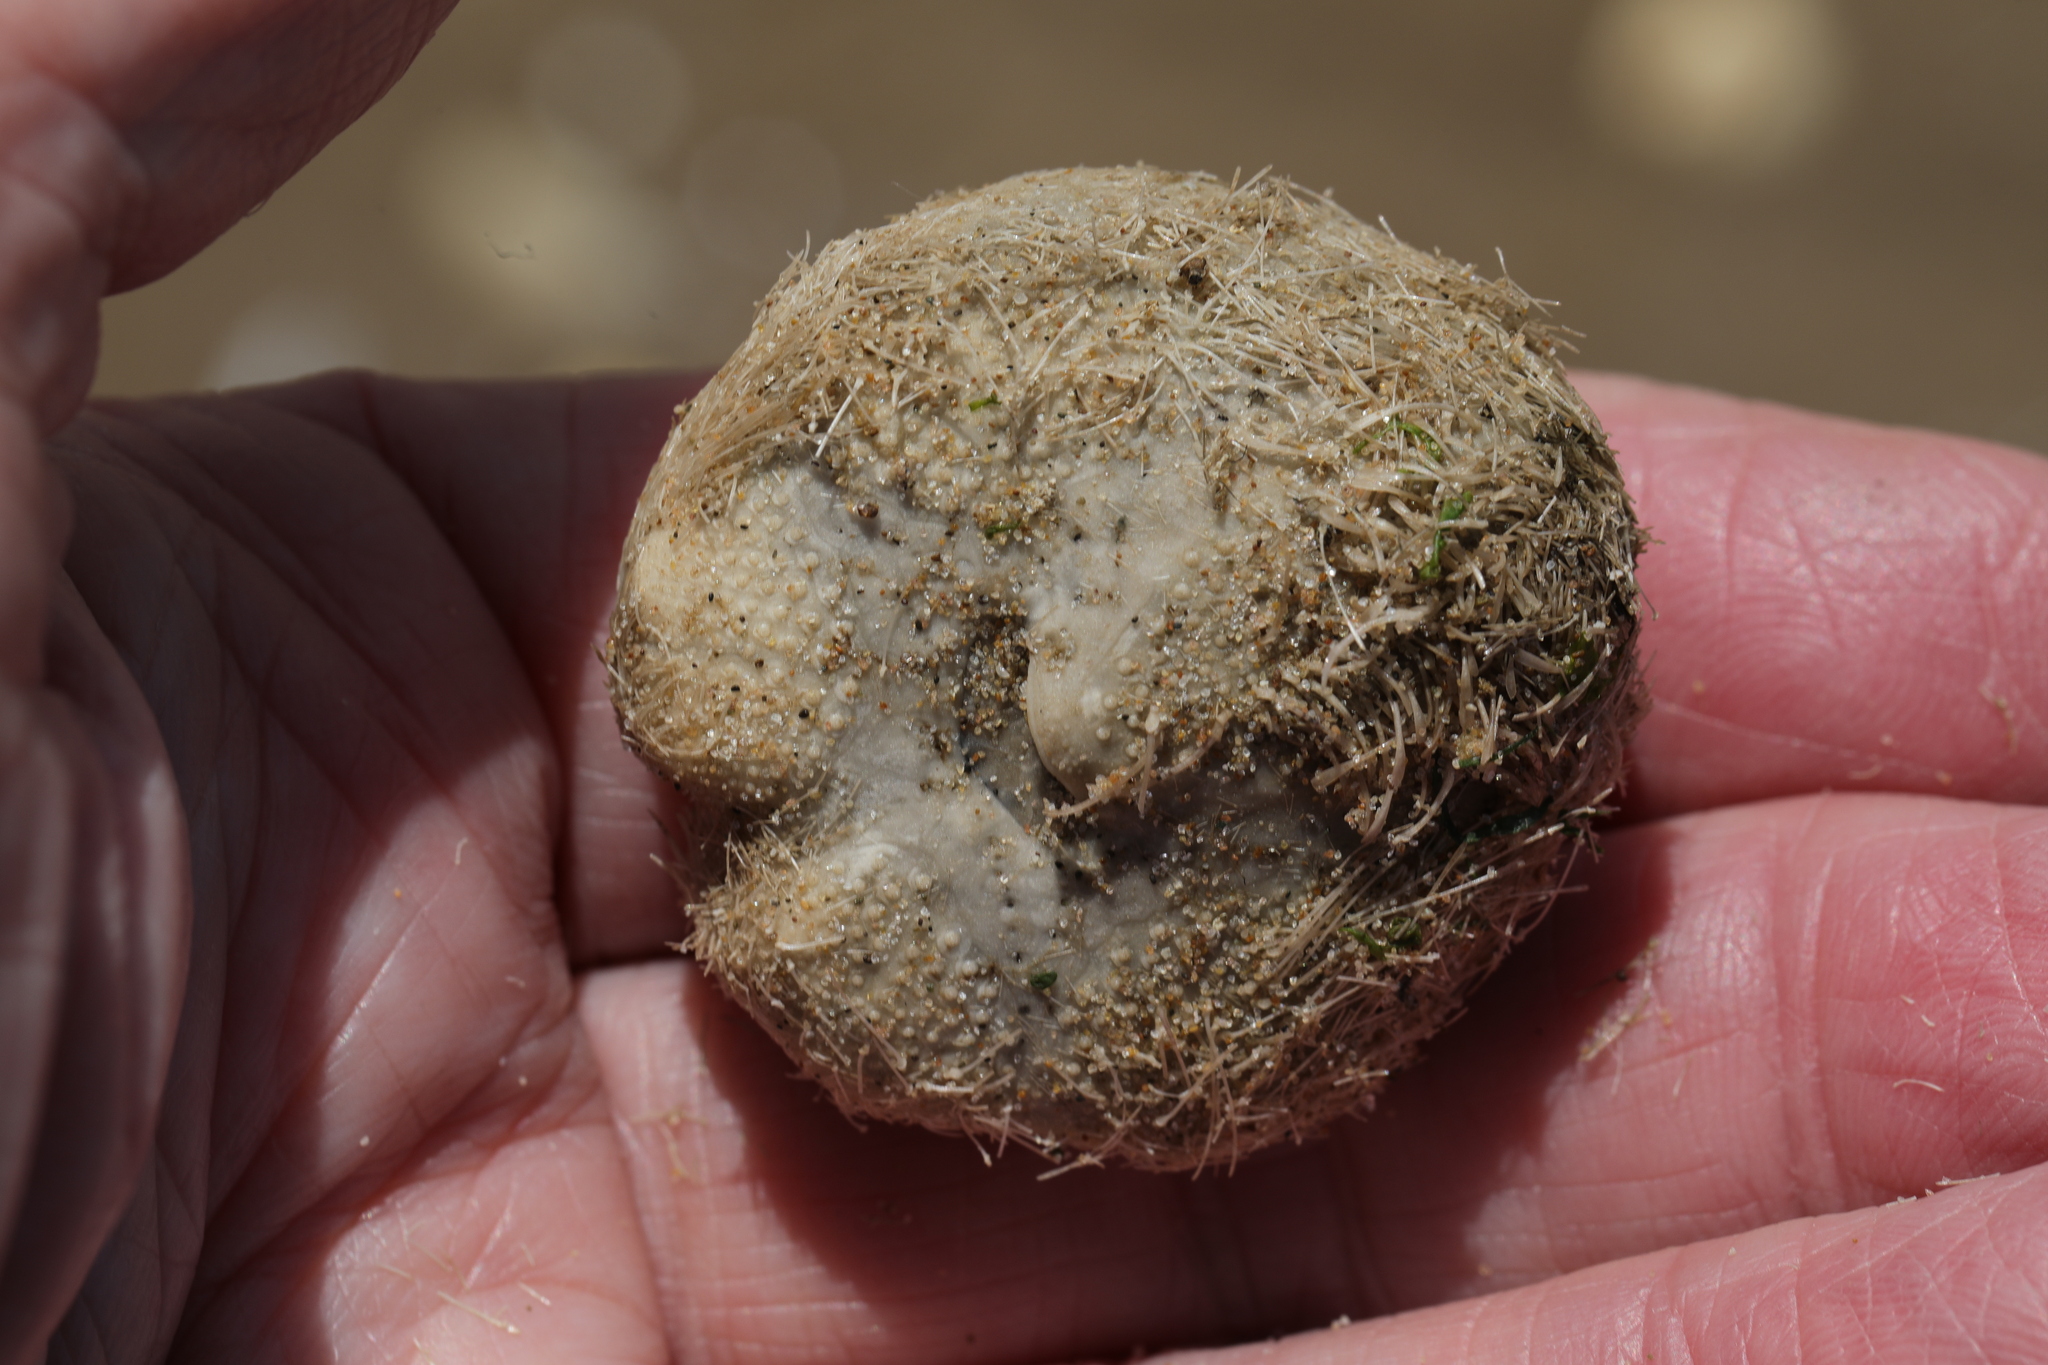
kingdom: Animalia
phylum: Echinodermata
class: Echinoidea
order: Spatangoida
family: Loveniidae
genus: Echinocardium
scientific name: Echinocardium cordatum
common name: Heart-urchin
